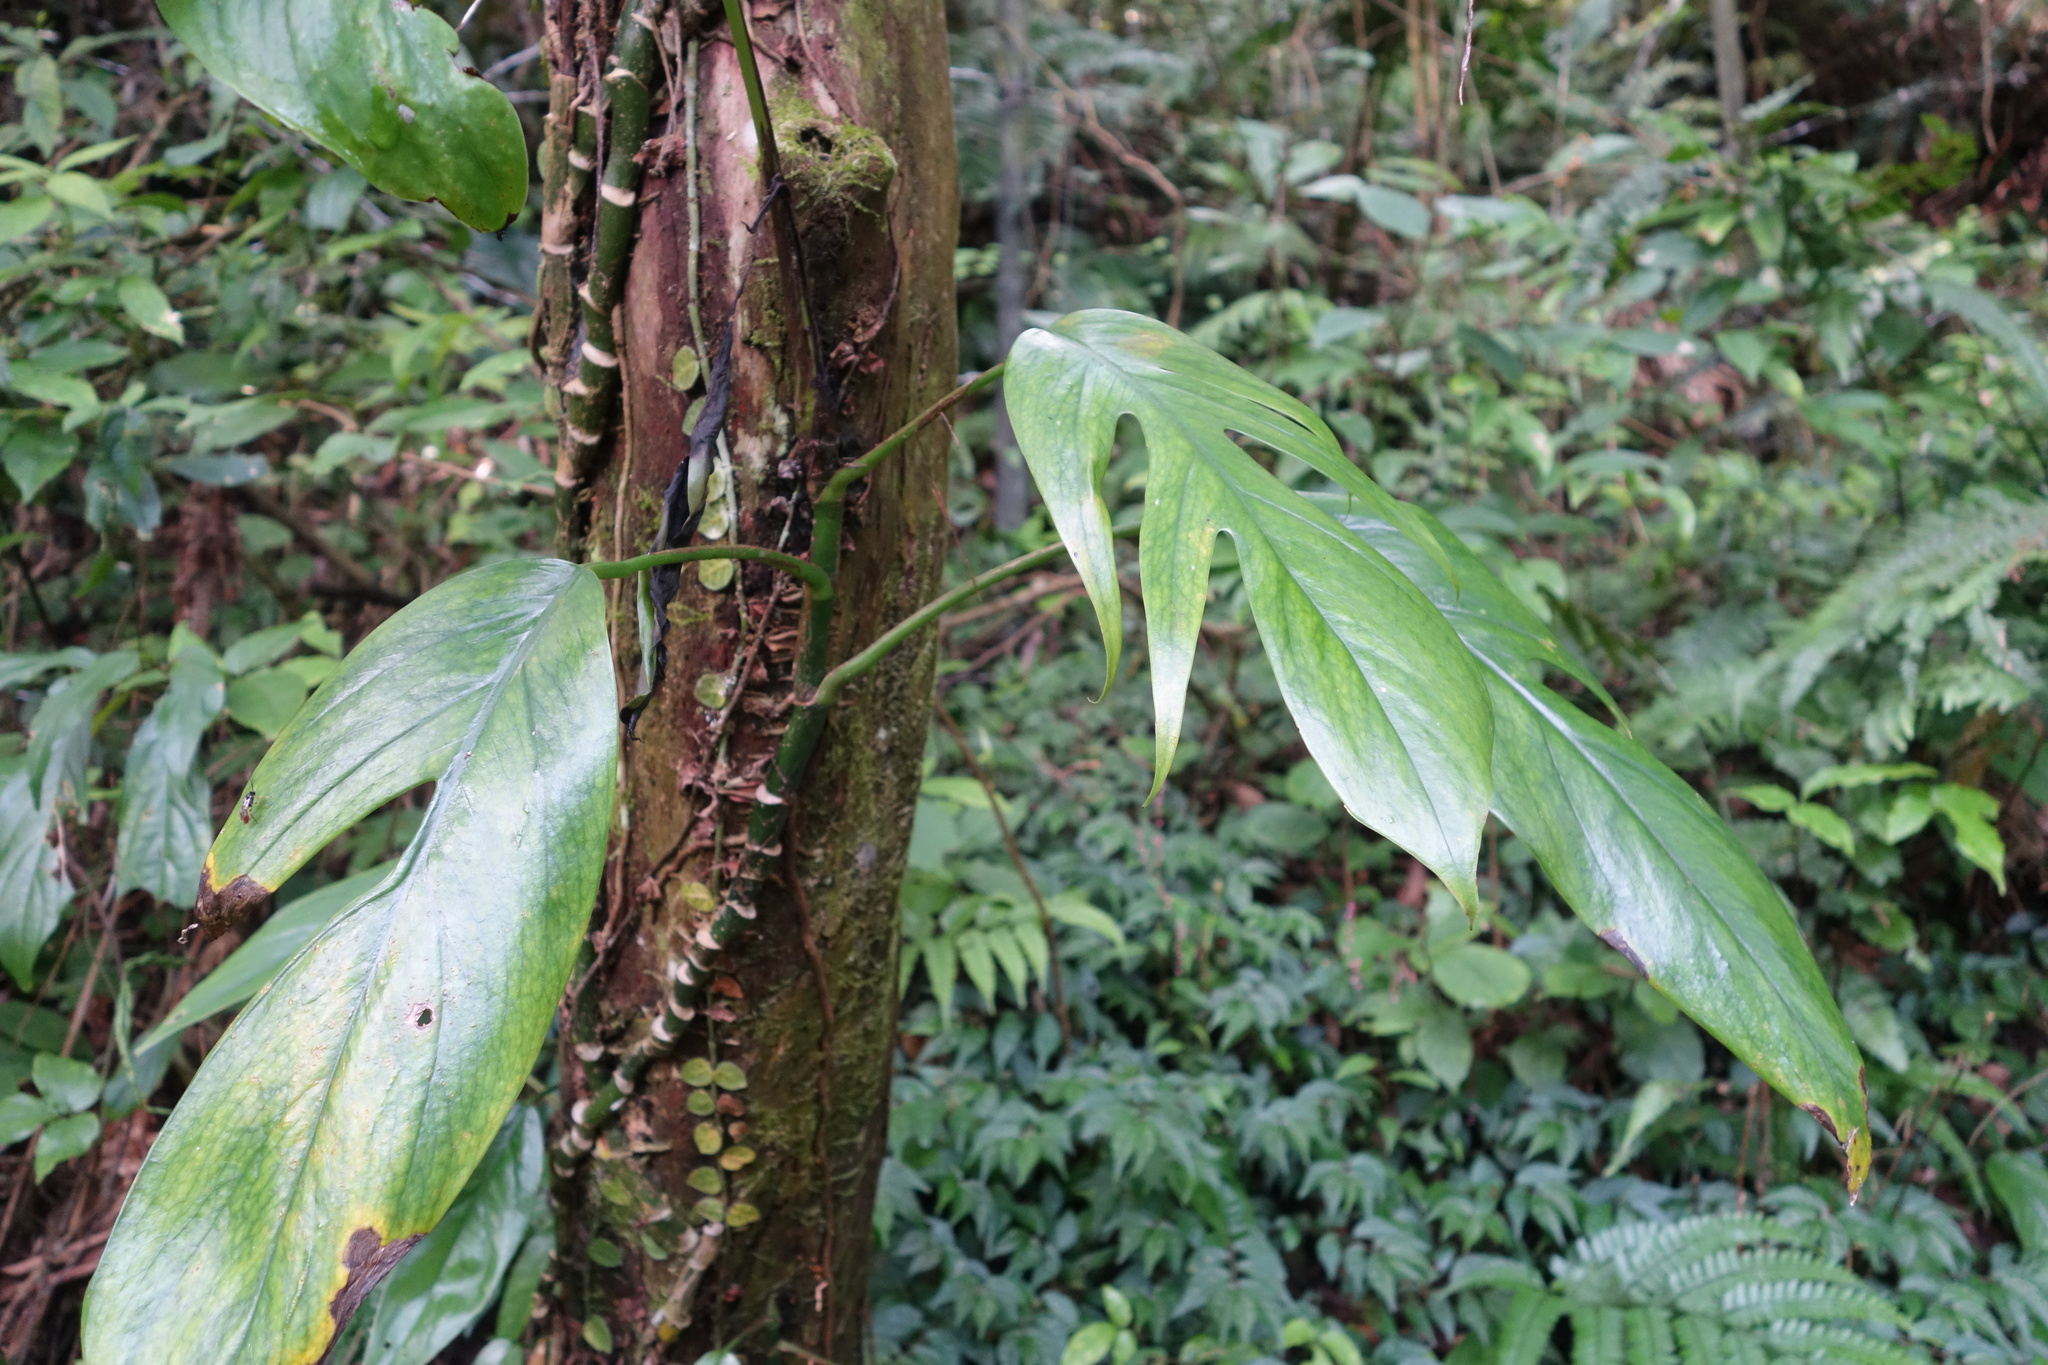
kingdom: Plantae
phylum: Tracheophyta
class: Liliopsida
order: Alismatales
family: Araceae
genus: Epipremnum
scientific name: Epipremnum pinnatum
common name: Centipede tongavine
